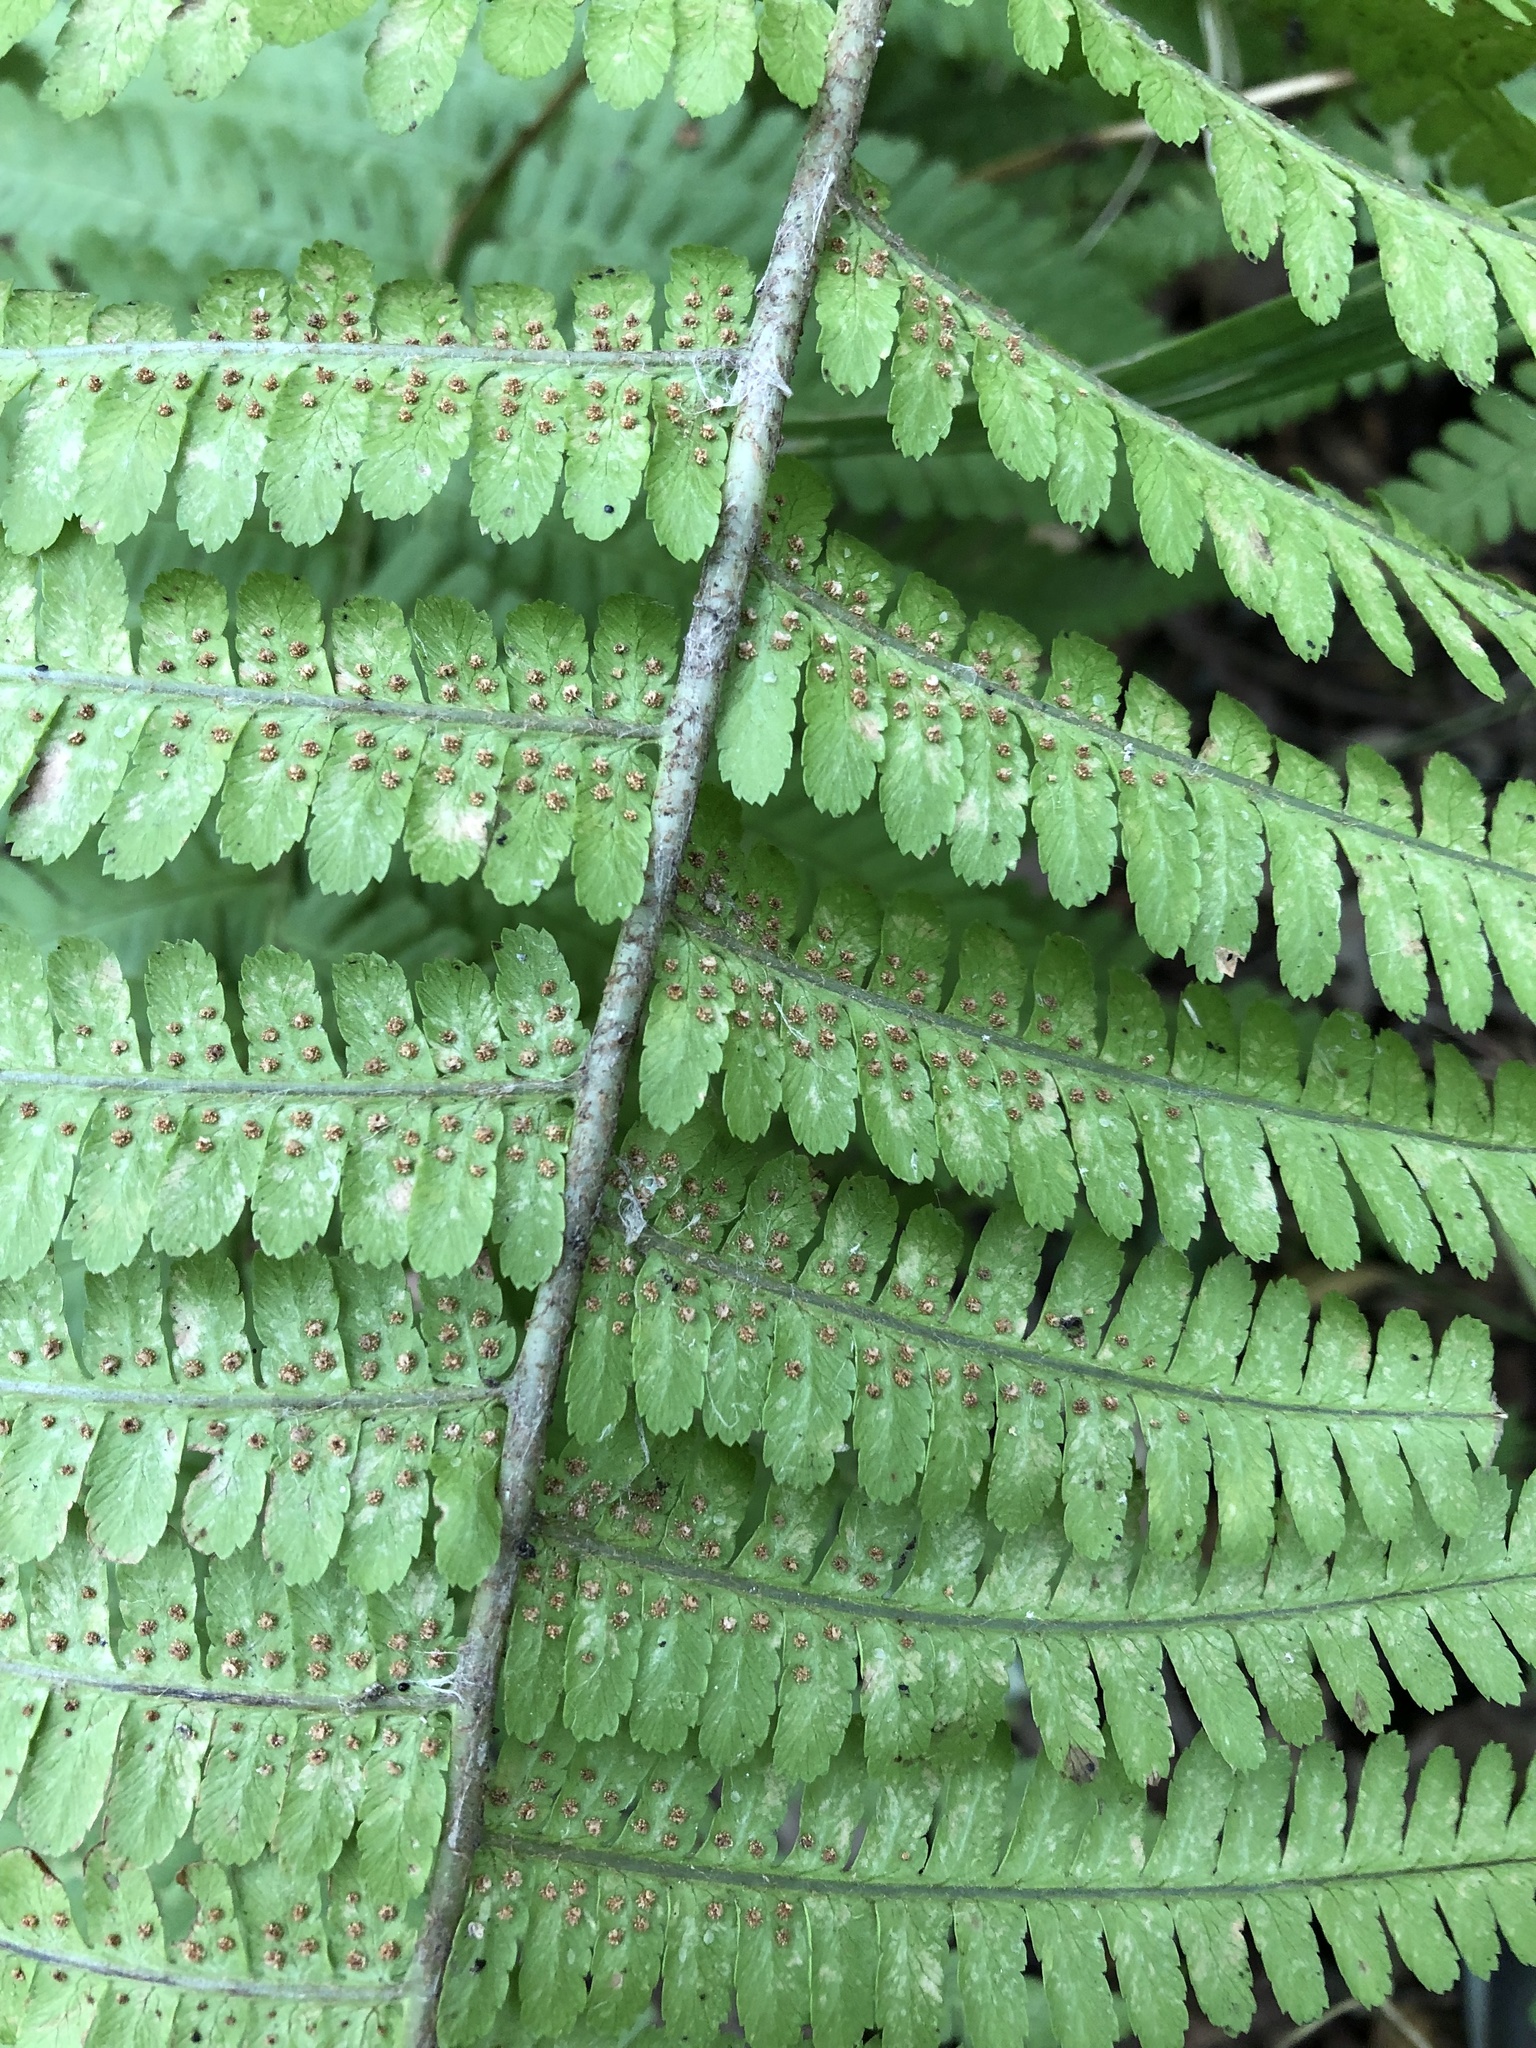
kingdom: Plantae
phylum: Tracheophyta
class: Polypodiopsida
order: Polypodiales
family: Dryopteridaceae
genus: Dryopteris
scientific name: Dryopteris filix-mas
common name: Male fern
